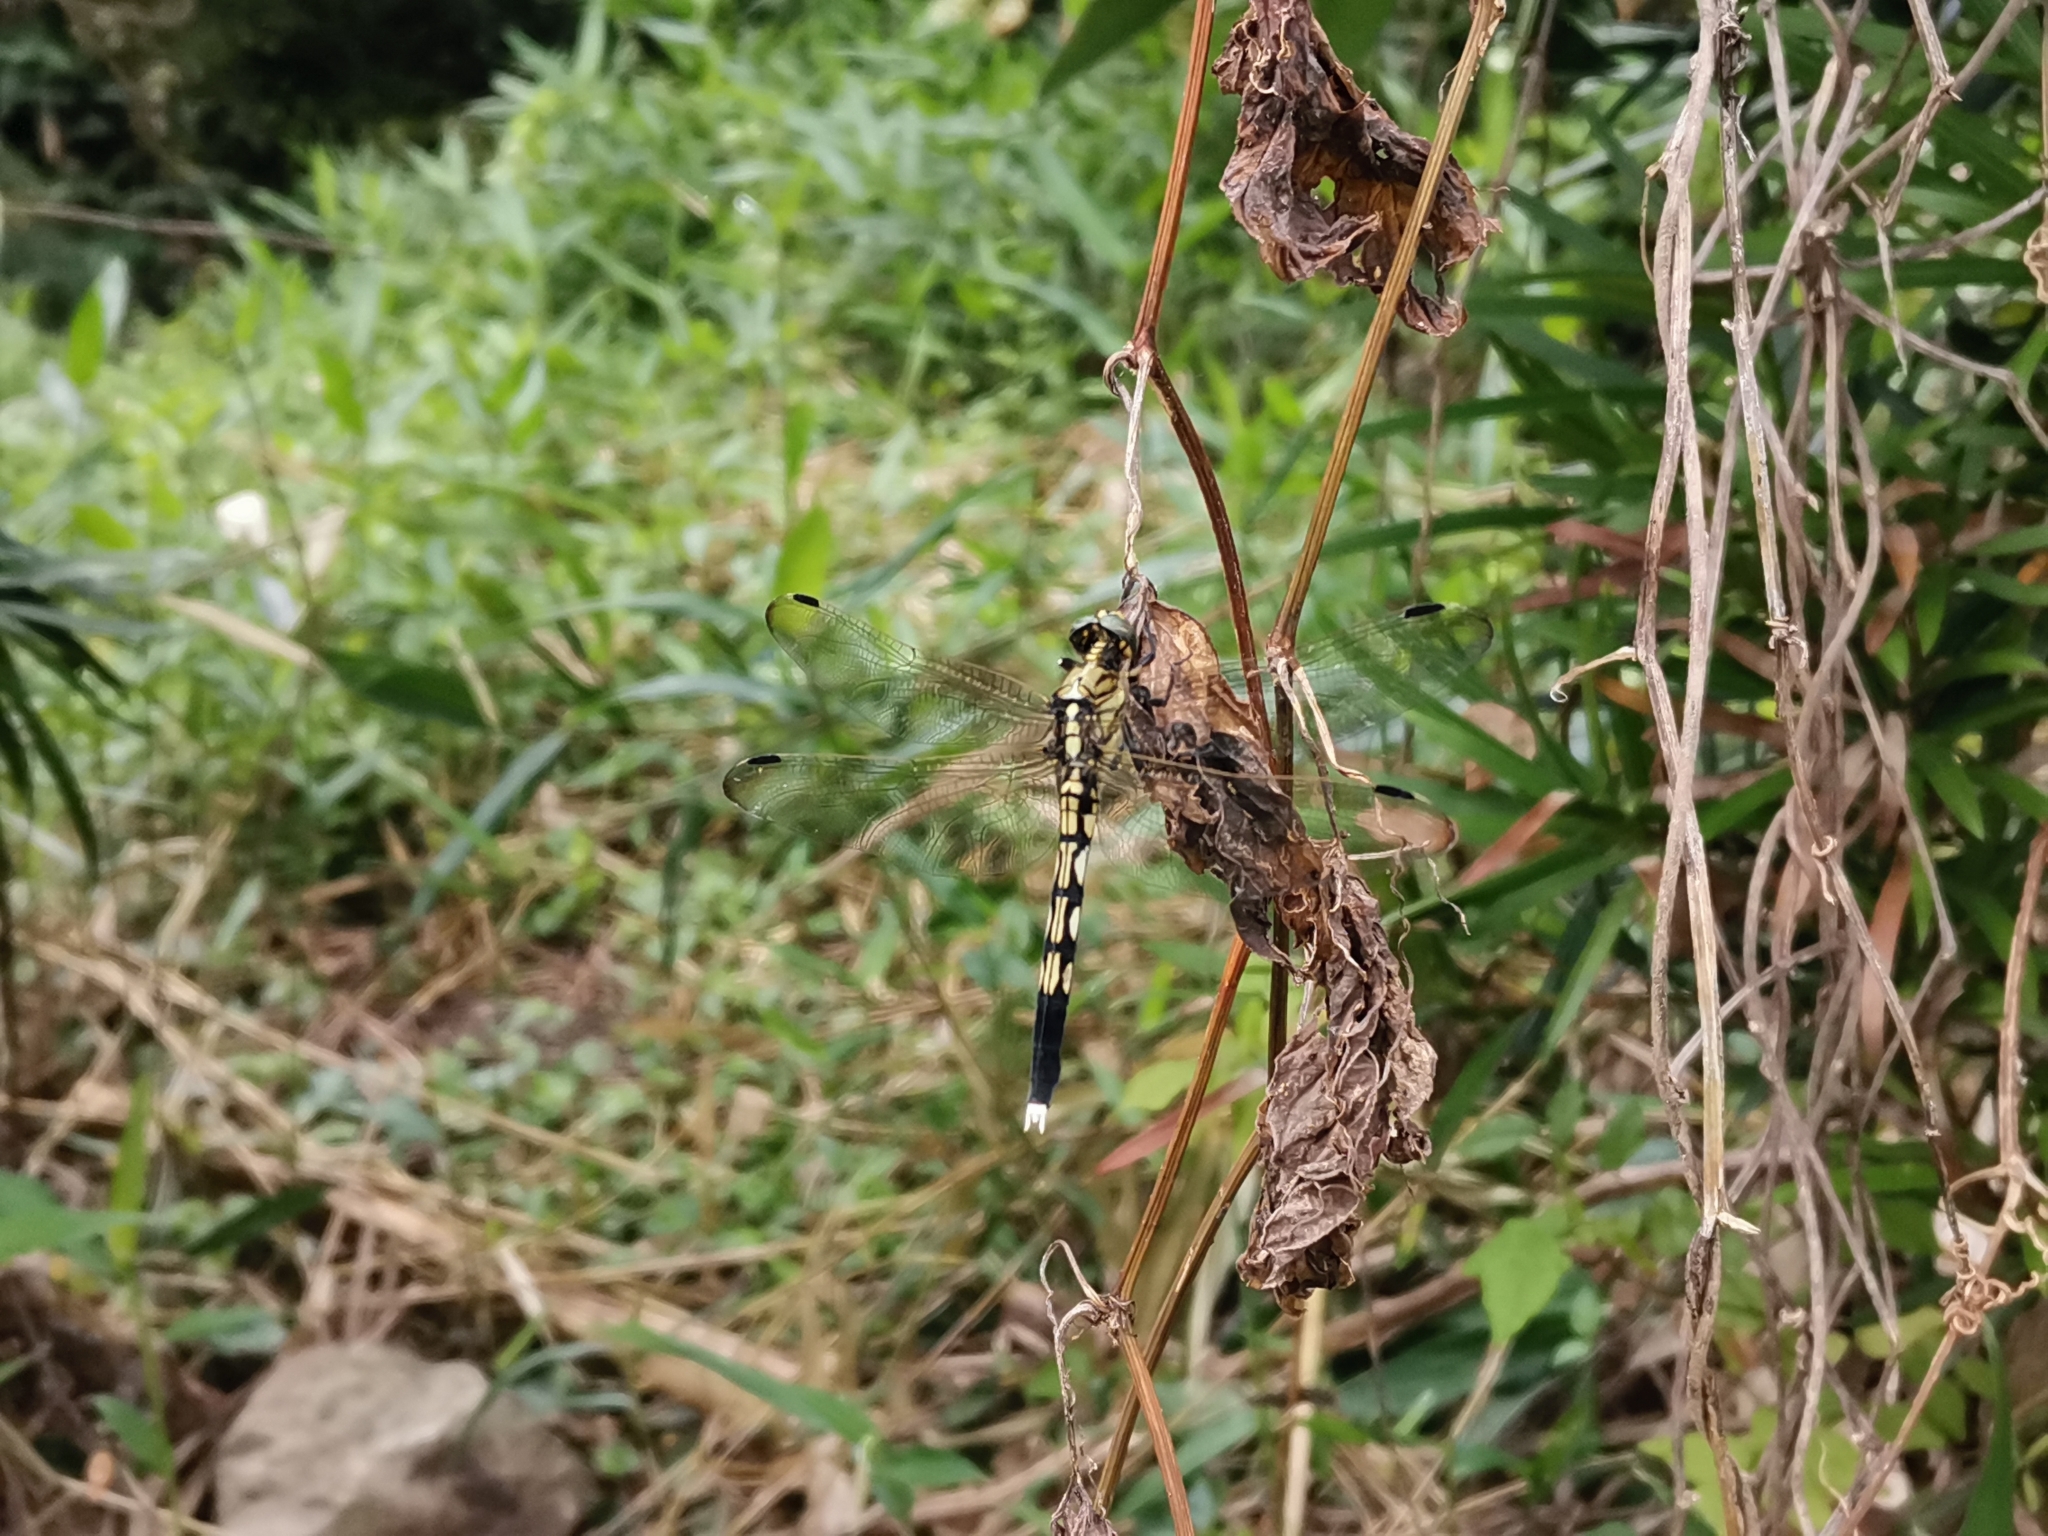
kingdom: Animalia
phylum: Arthropoda
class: Insecta
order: Odonata
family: Libellulidae
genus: Orthetrum
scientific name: Orthetrum albistylum
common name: White-tailed skimmer
